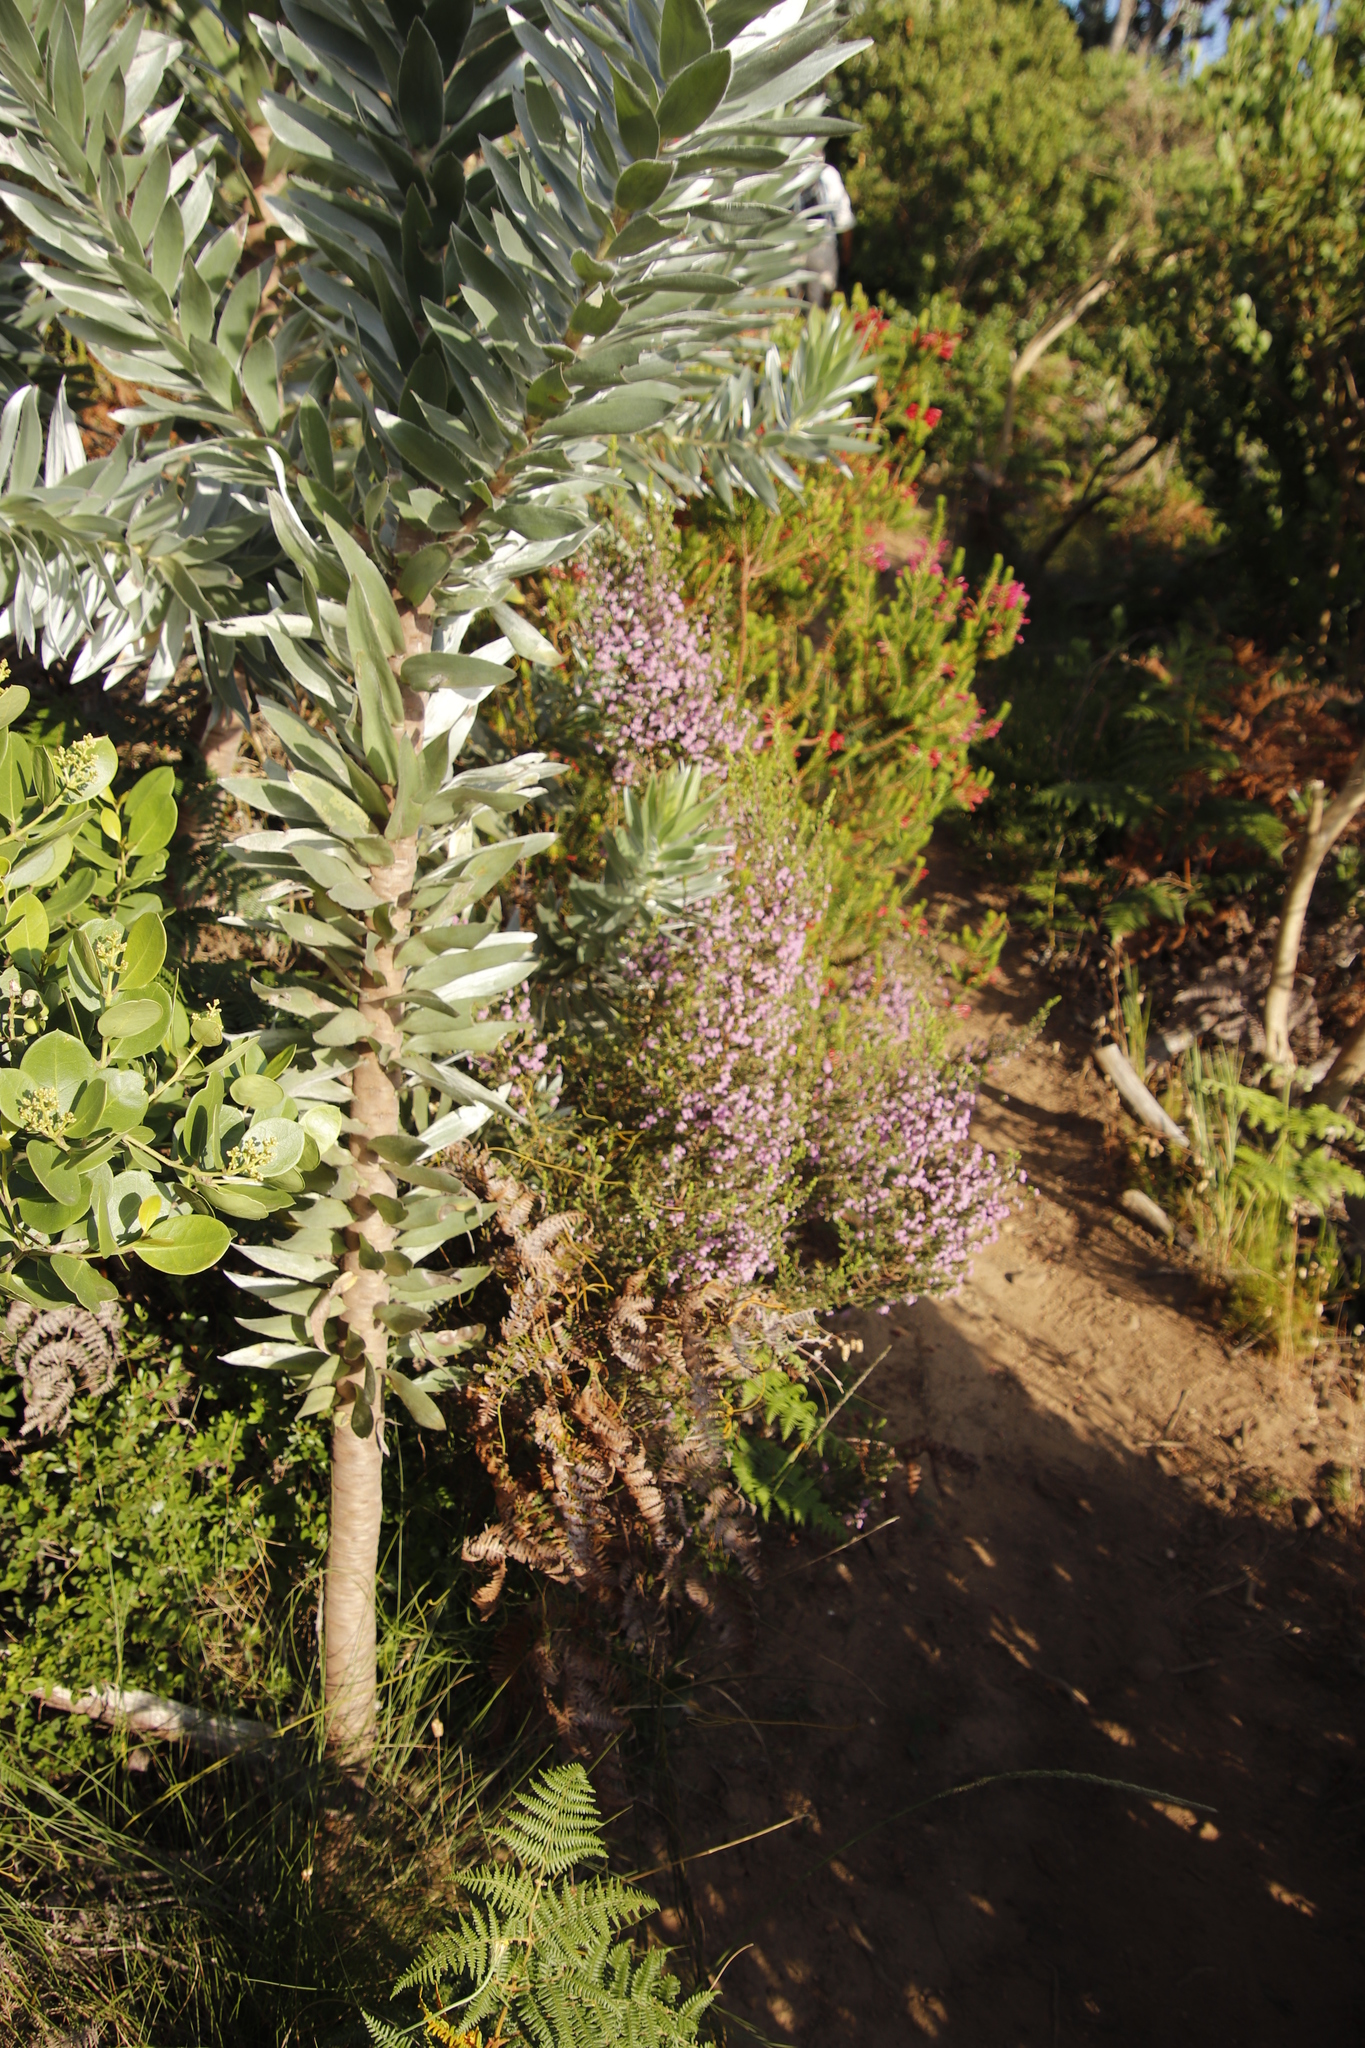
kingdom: Plantae
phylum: Tracheophyta
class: Magnoliopsida
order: Ericales
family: Ericaceae
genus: Erica
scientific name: Erica hirtiflora
